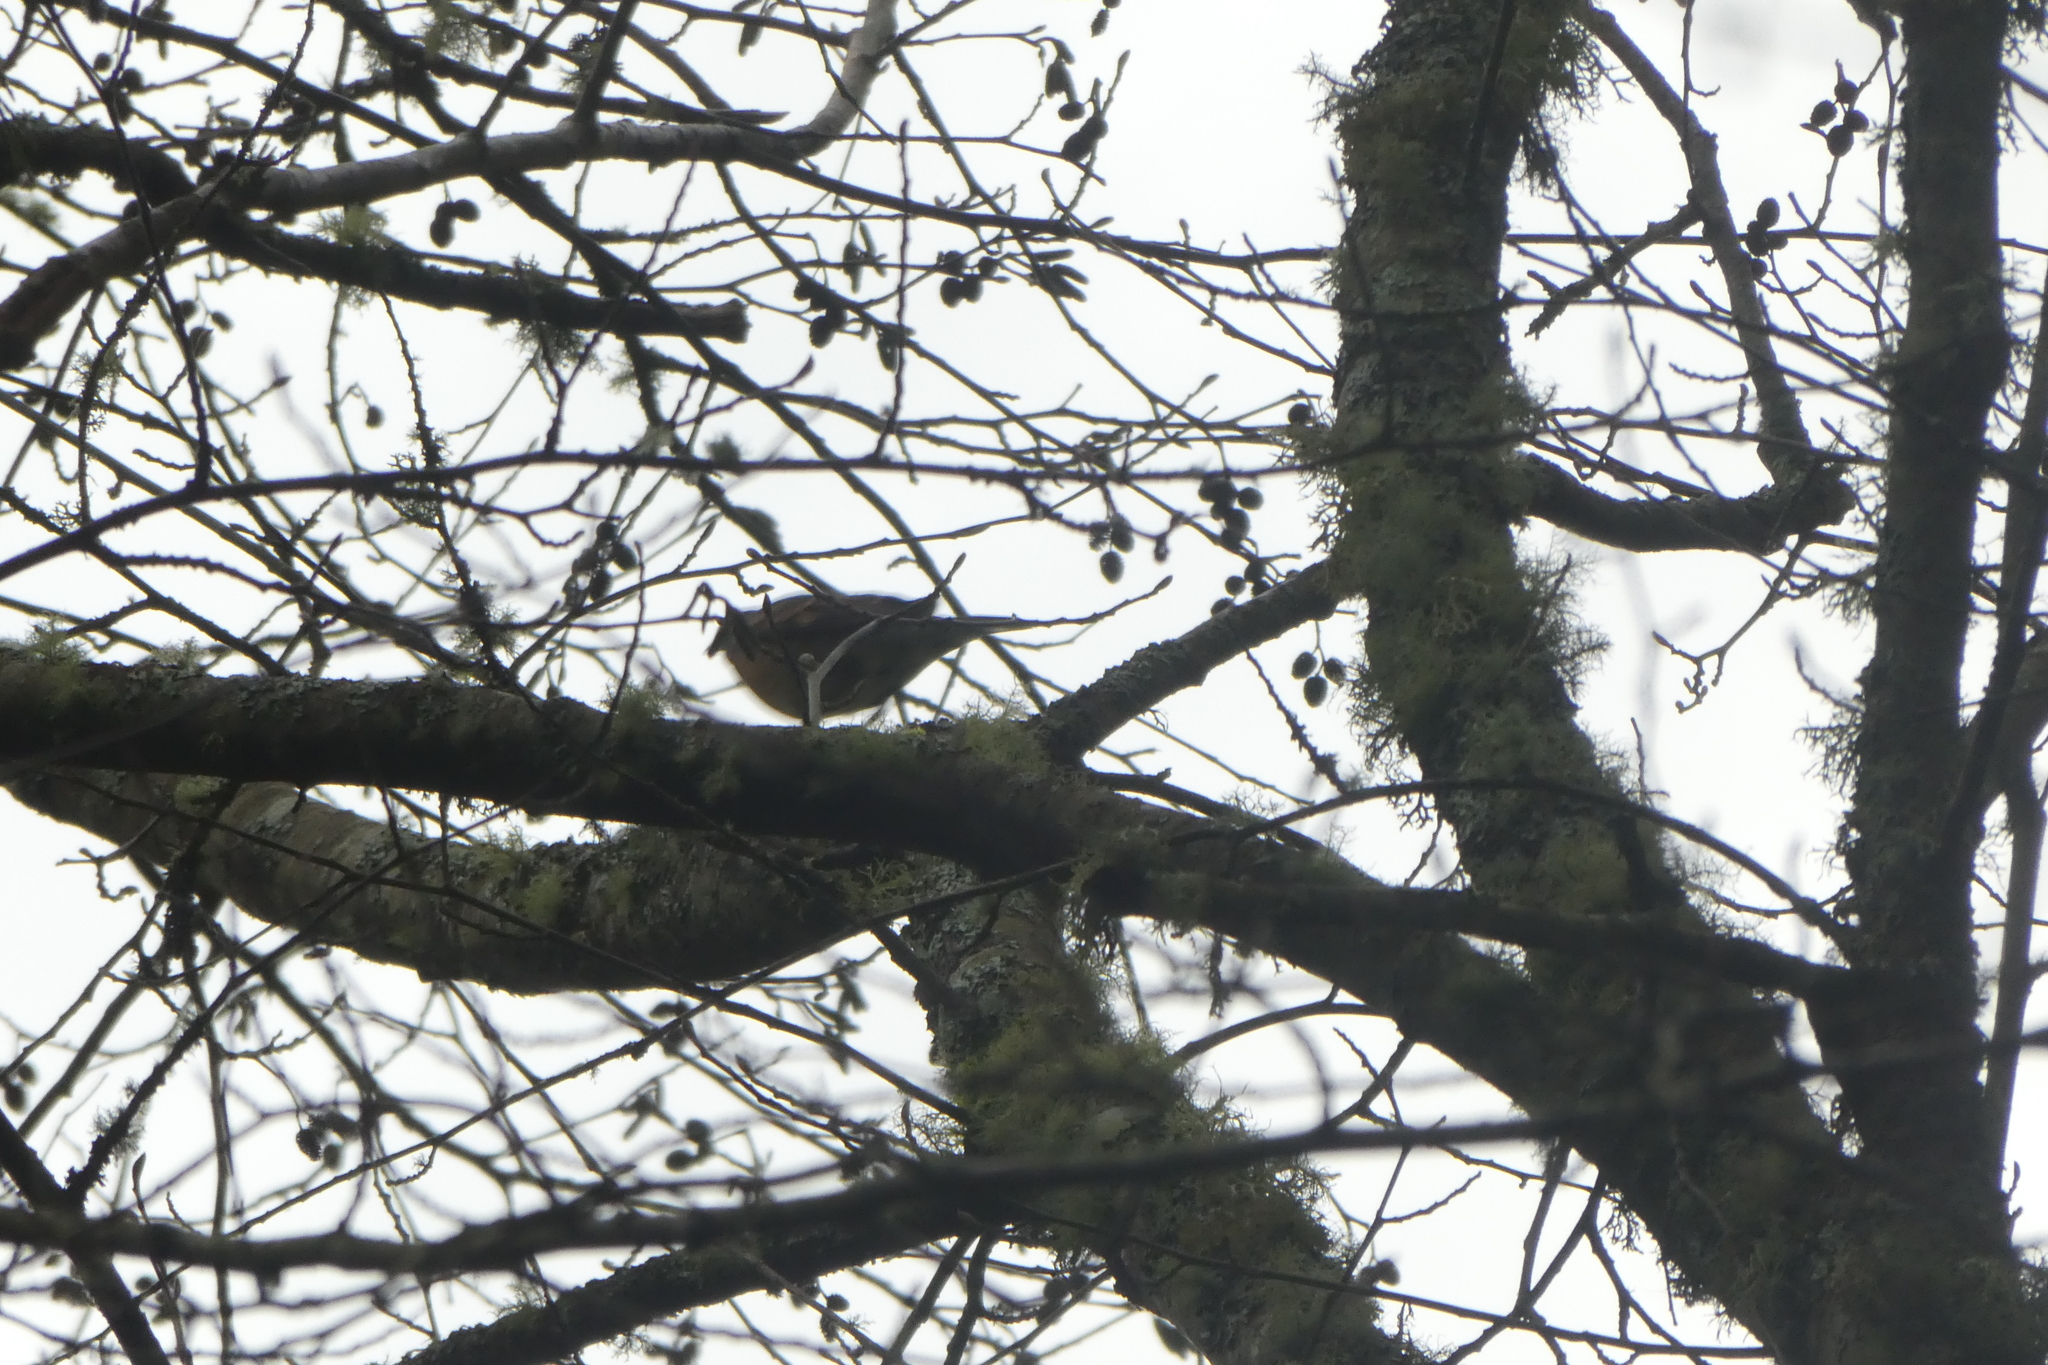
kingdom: Animalia
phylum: Chordata
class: Aves
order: Passeriformes
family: Turdidae
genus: Ixoreus
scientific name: Ixoreus naevius
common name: Varied thrush
